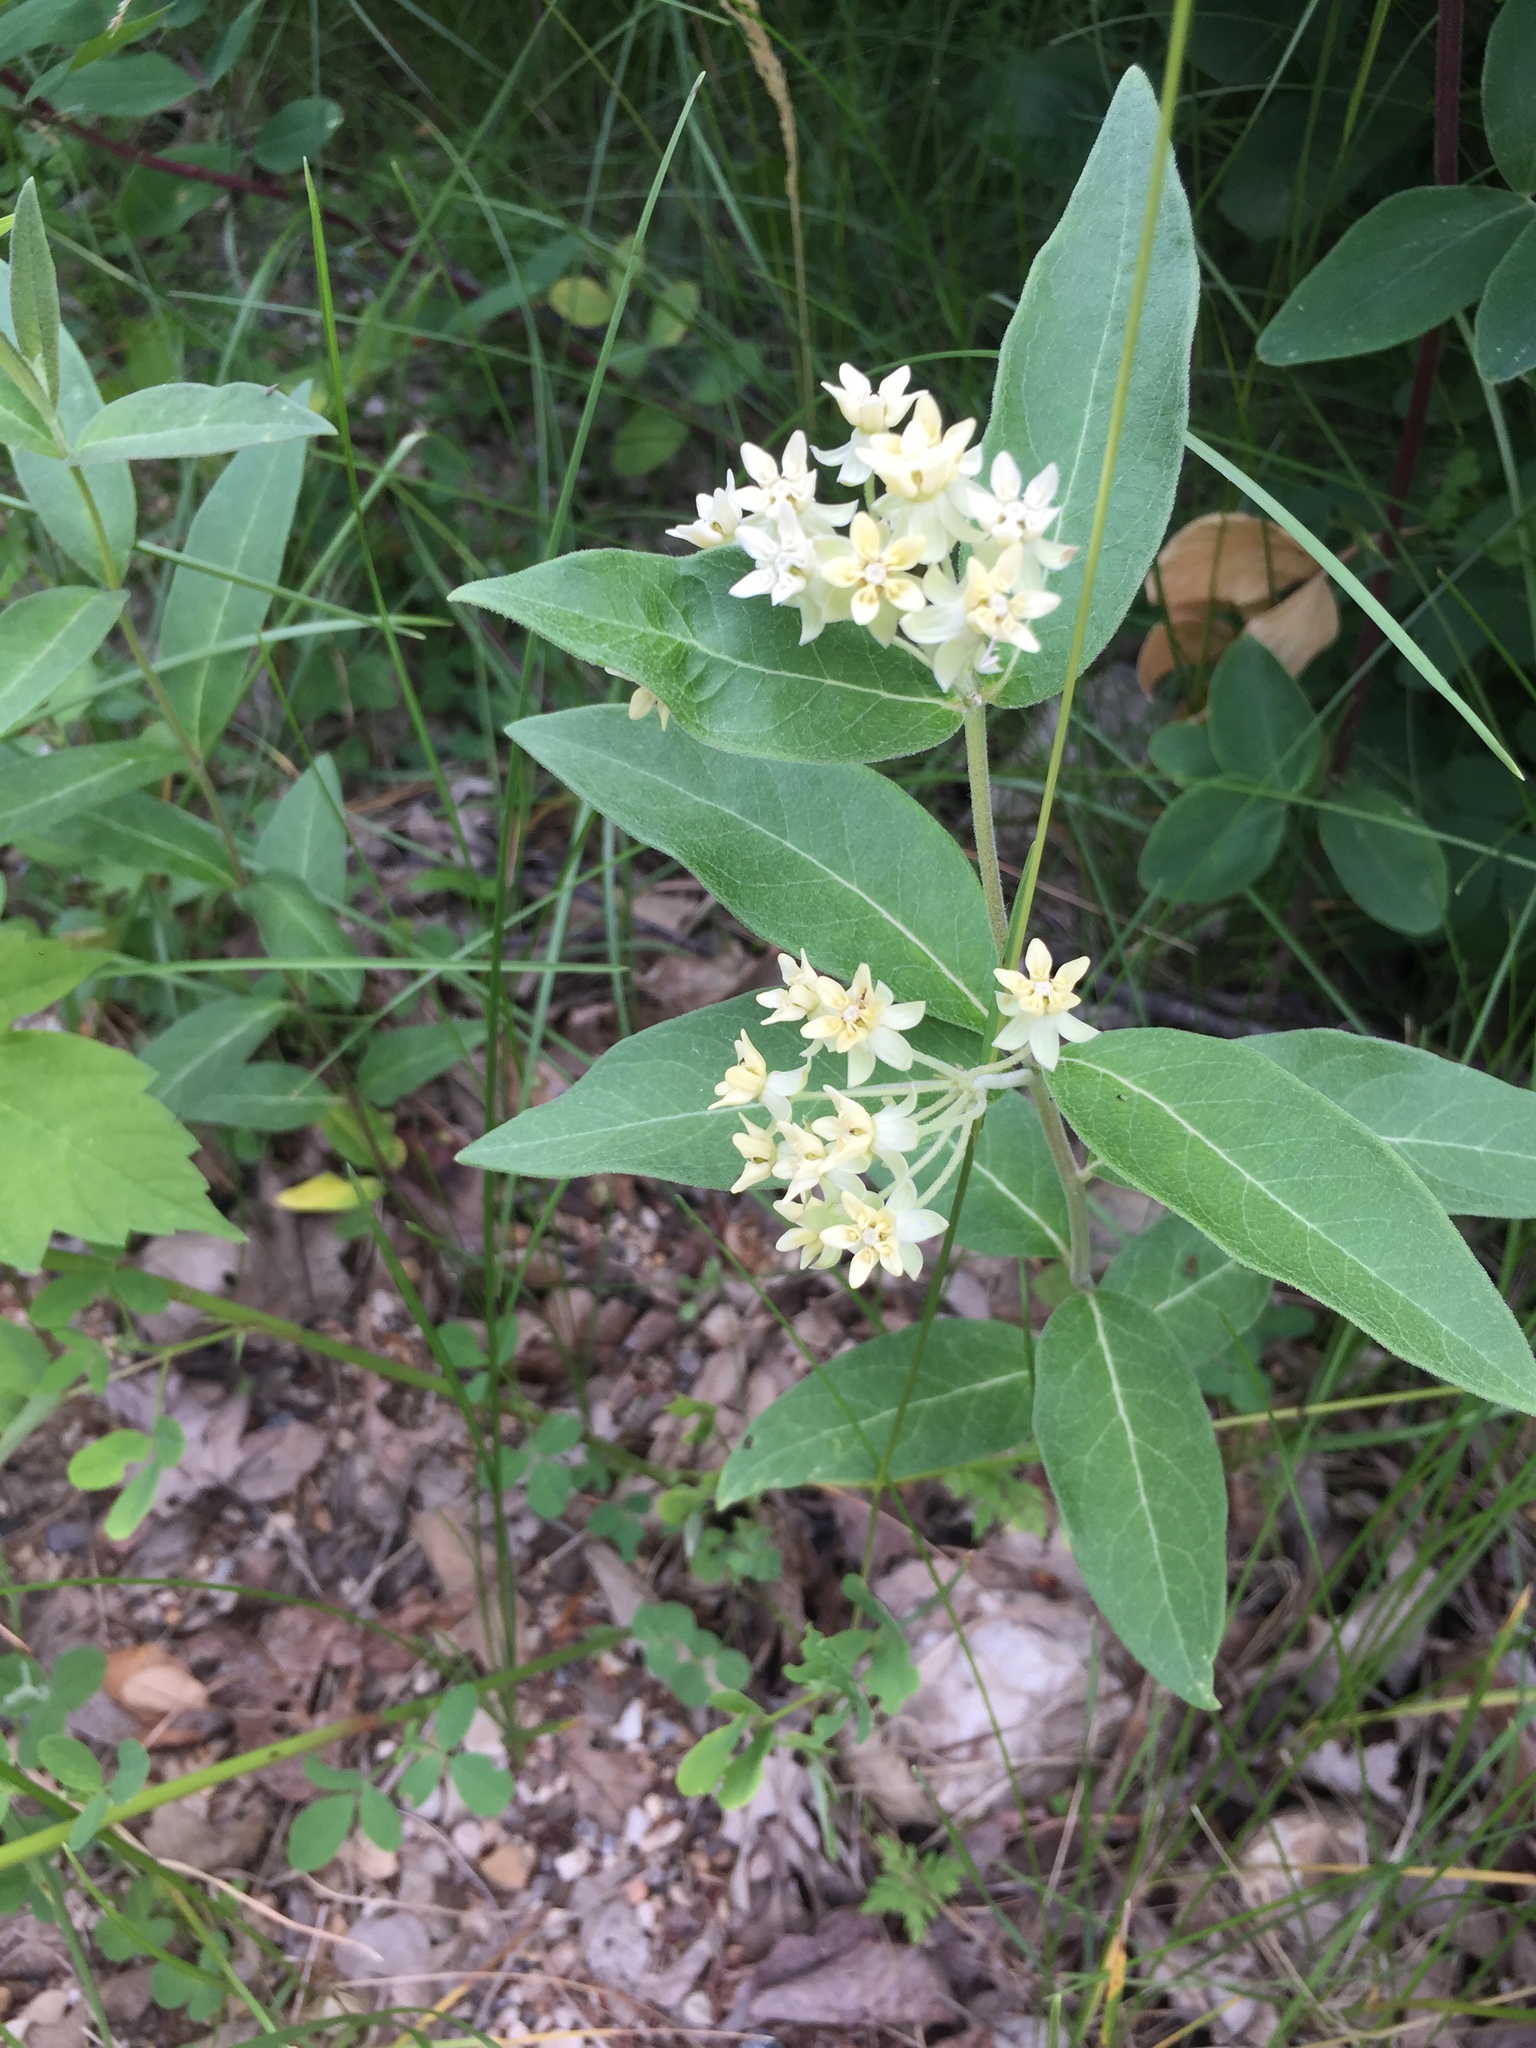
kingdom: Plantae
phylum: Tracheophyta
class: Magnoliopsida
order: Gentianales
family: Apocynaceae
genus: Asclepias
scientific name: Asclepias ovalifolia
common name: Dwarf milkweed
